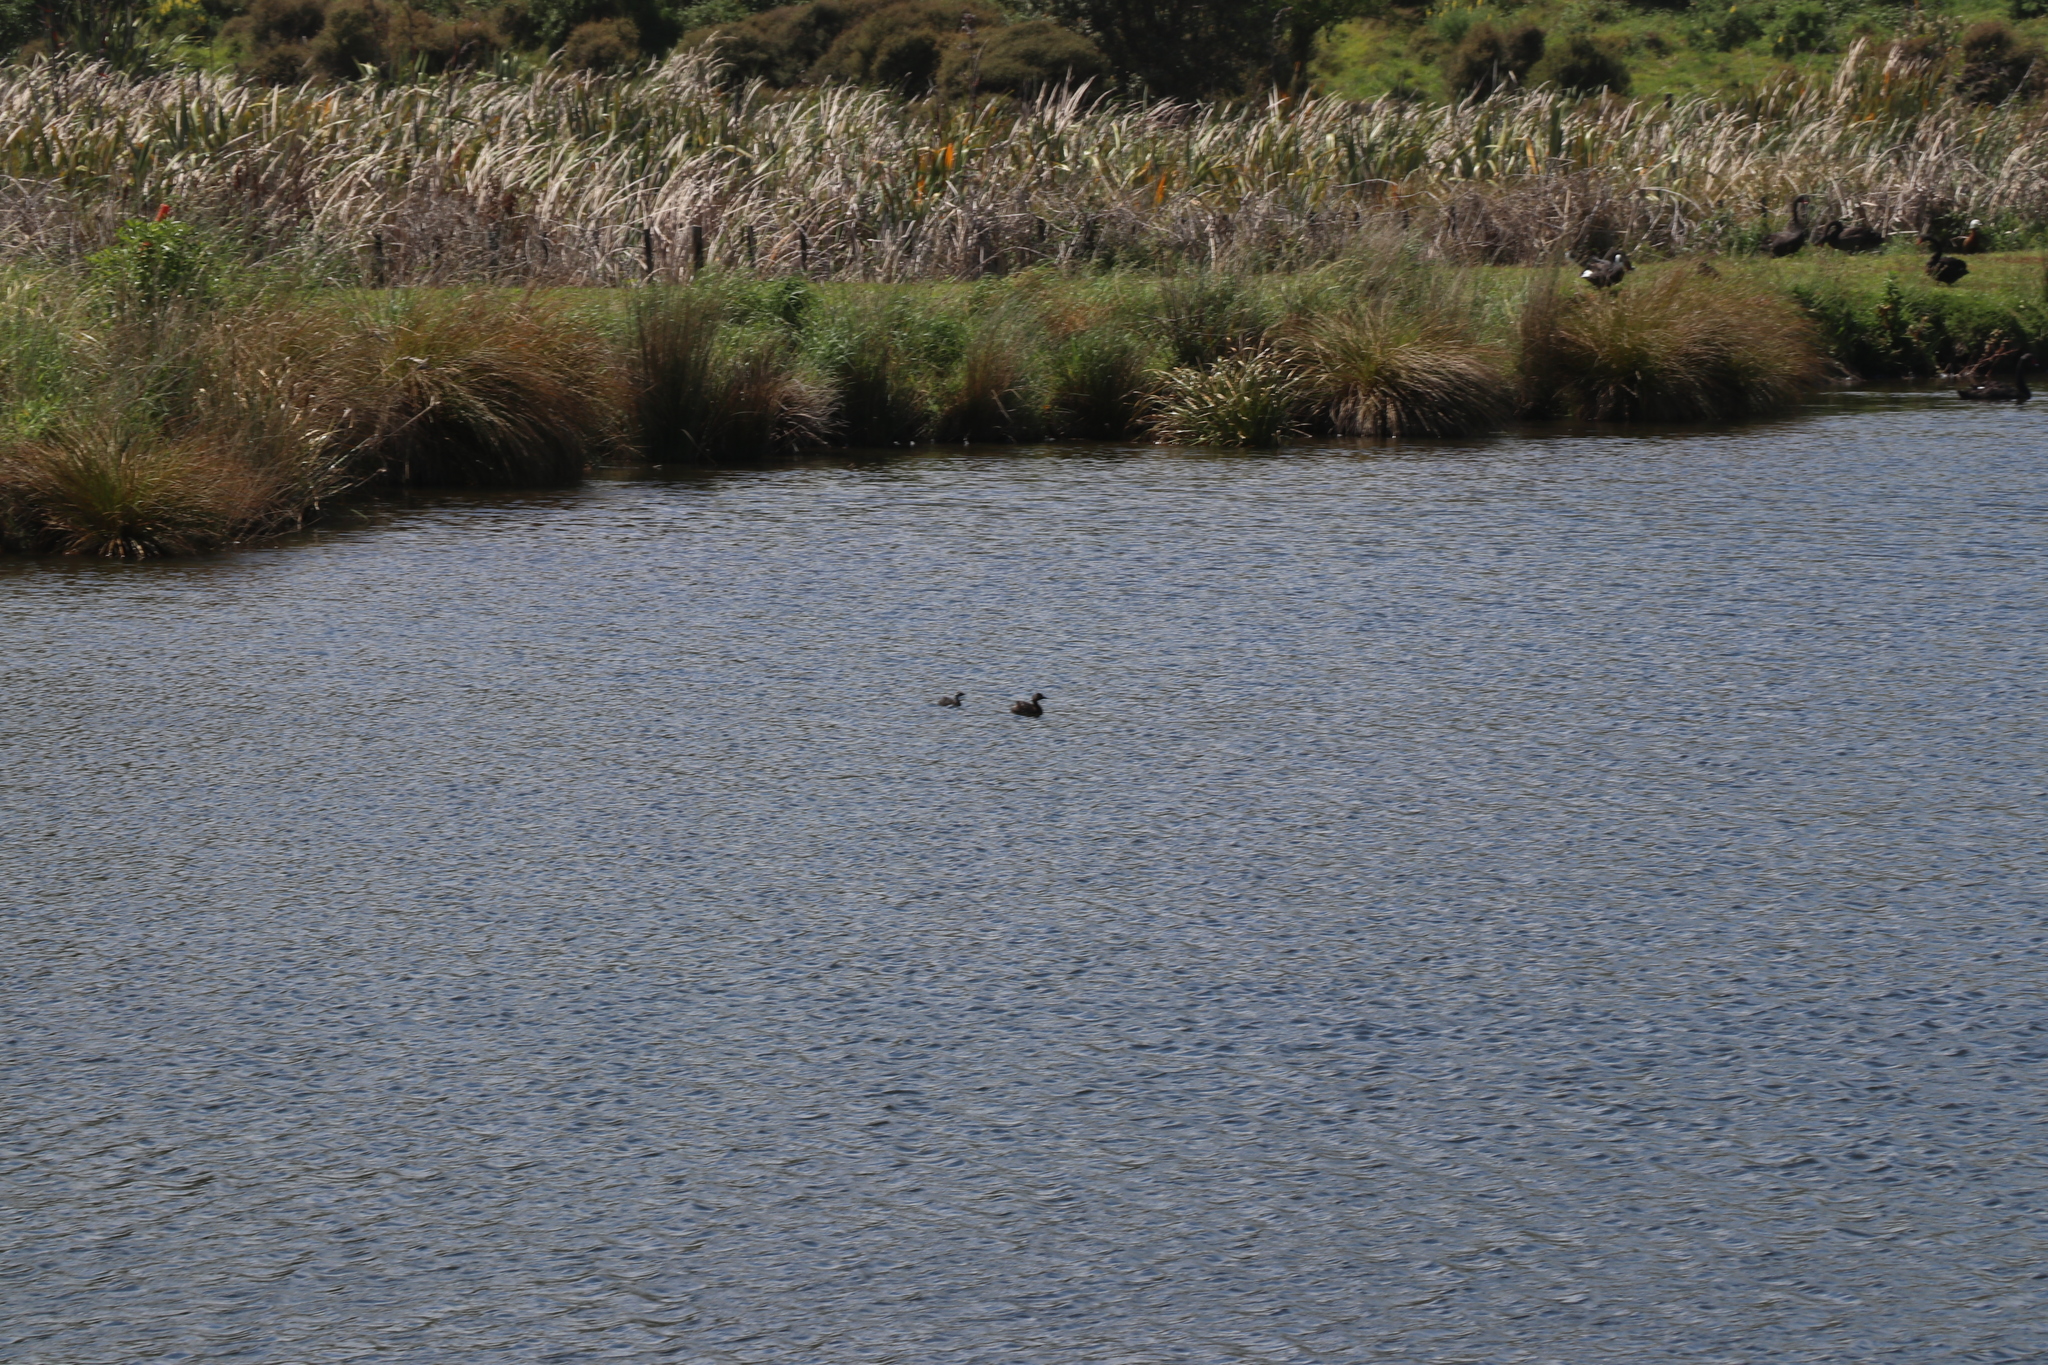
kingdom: Animalia
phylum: Chordata
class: Aves
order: Podicipediformes
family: Podicipedidae
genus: Poliocephalus
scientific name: Poliocephalus rufopectus
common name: New zealand grebe
